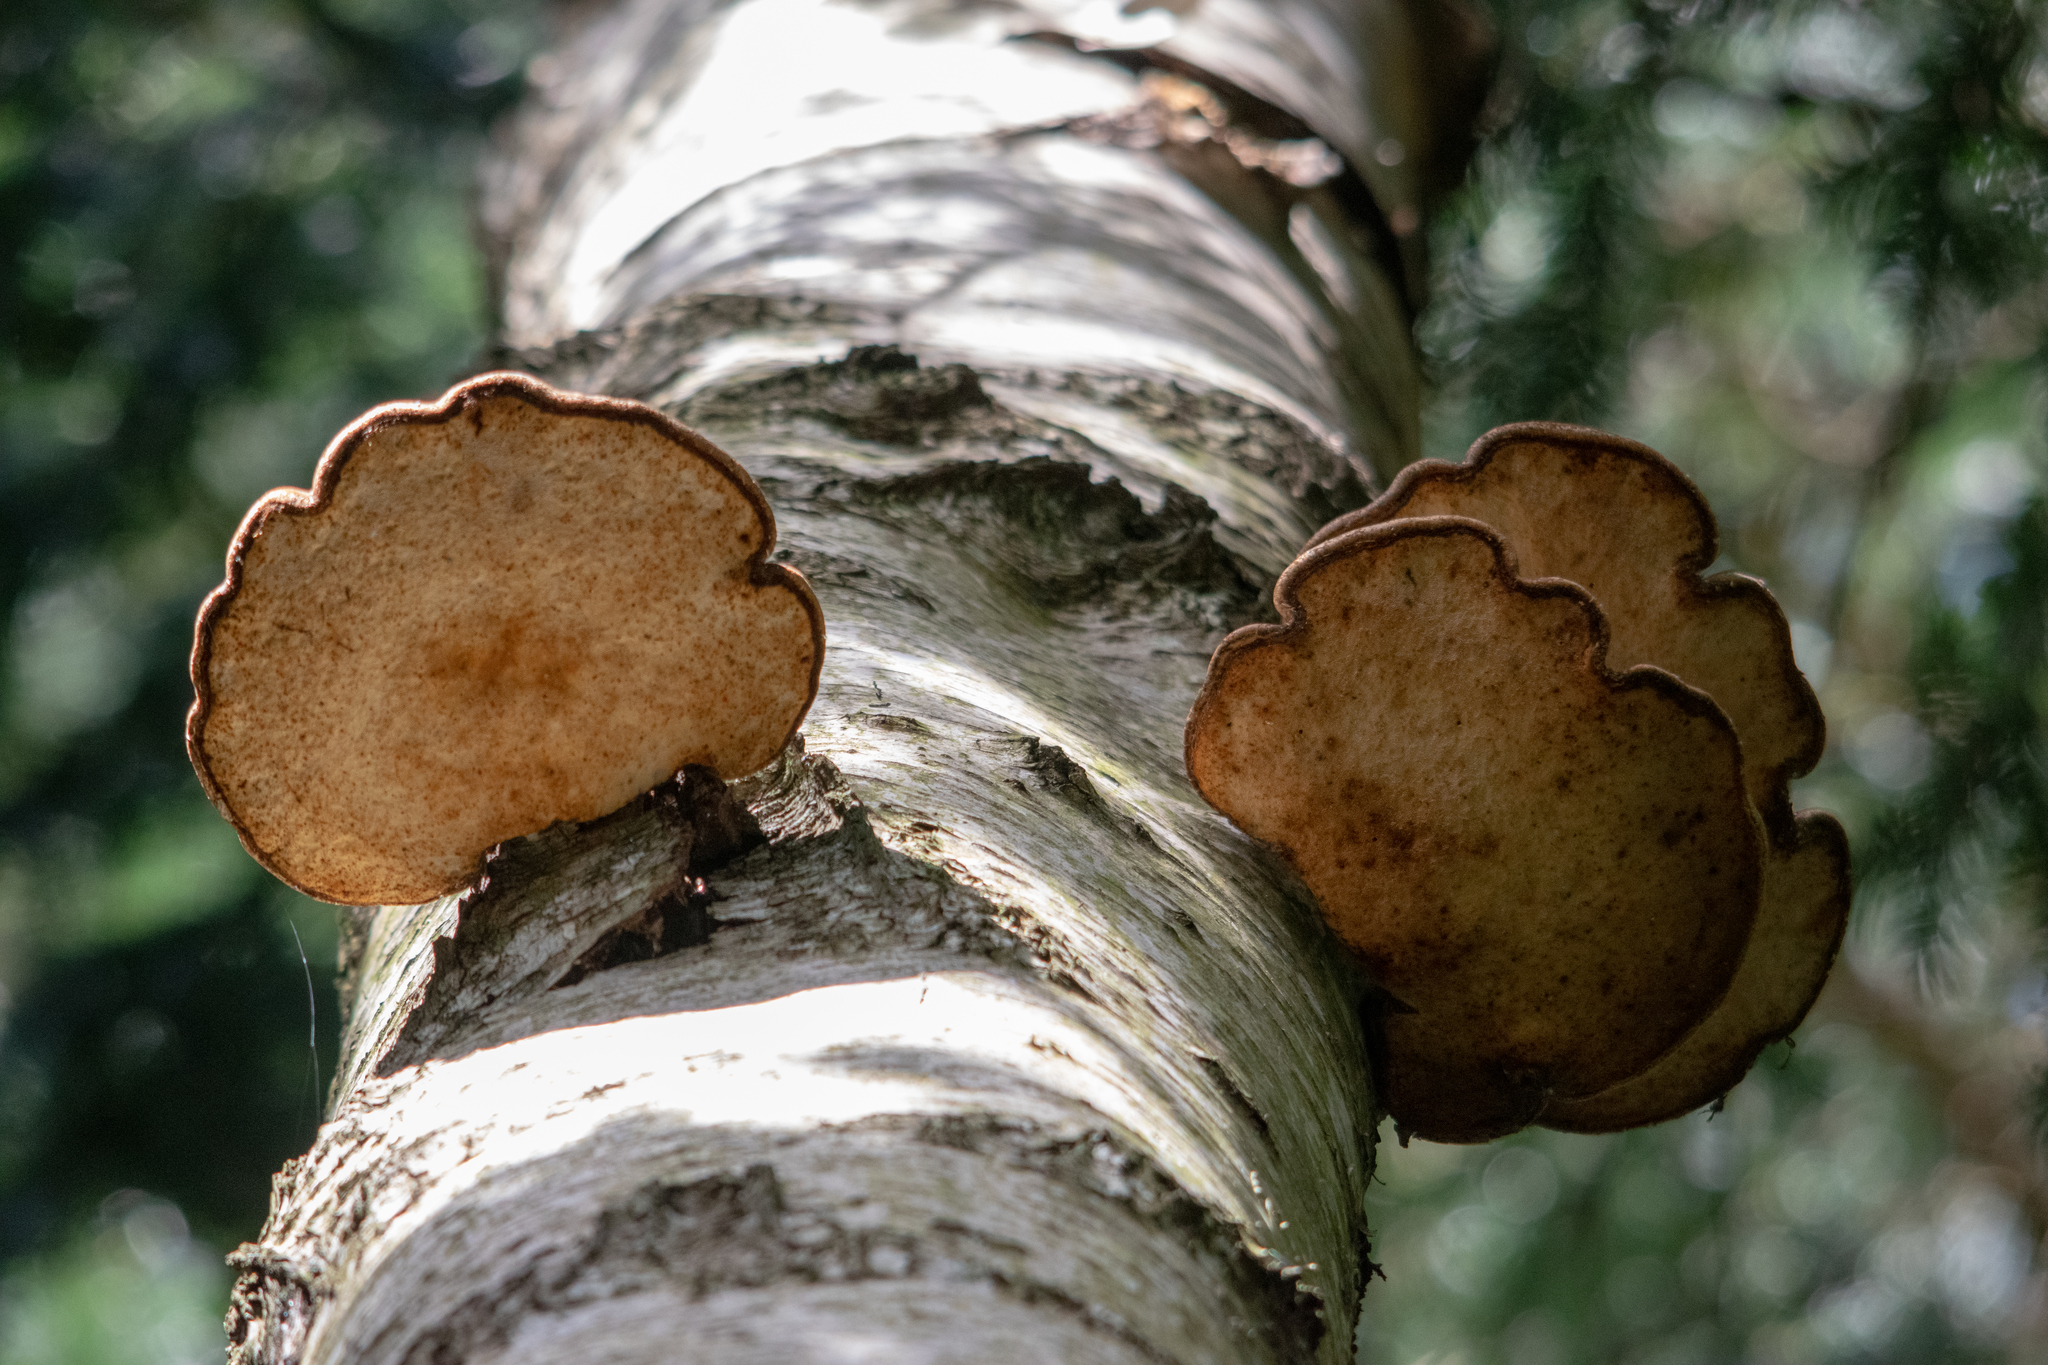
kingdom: Fungi
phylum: Basidiomycota
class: Agaricomycetes
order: Polyporales
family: Fomitopsidaceae
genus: Fomitopsis
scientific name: Fomitopsis betulina
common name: Birch polypore
